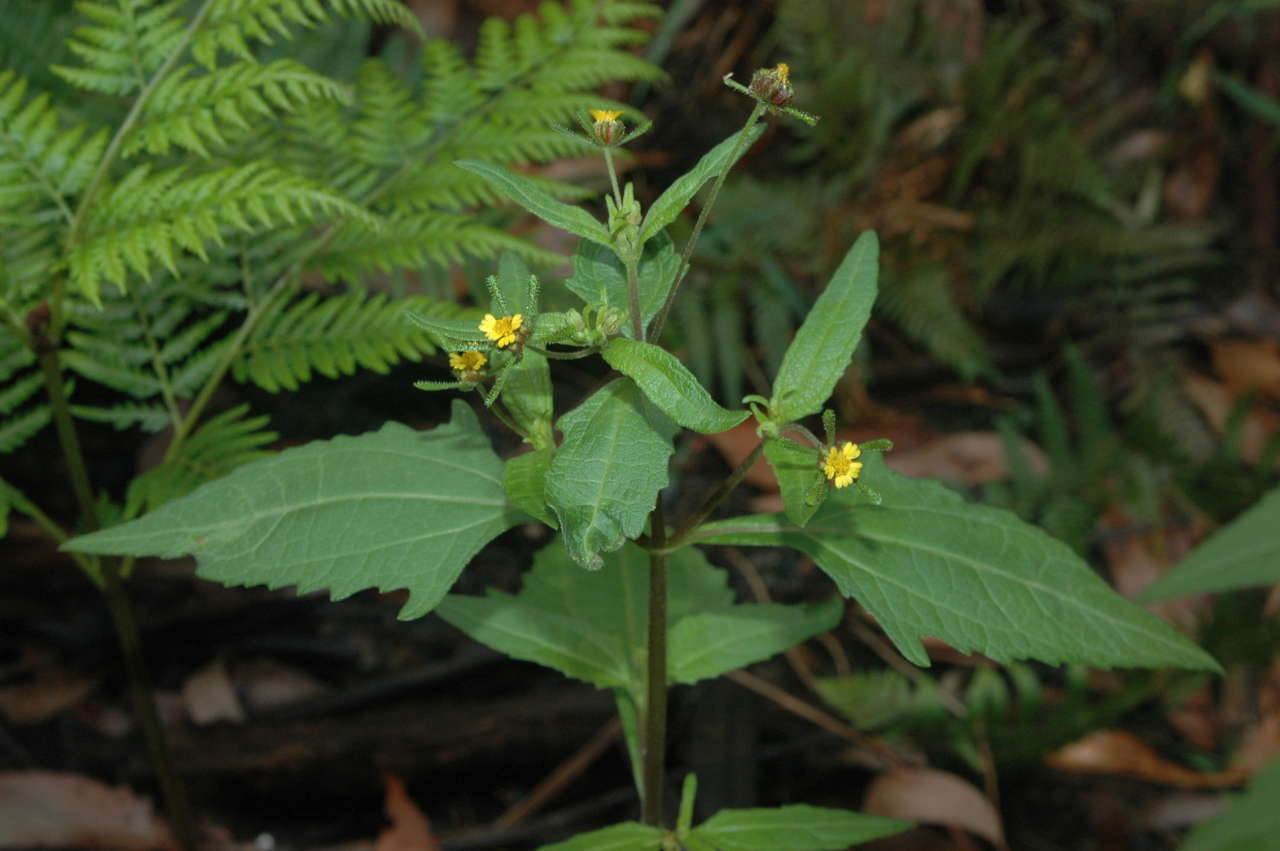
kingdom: Plantae
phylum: Tracheophyta
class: Magnoliopsida
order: Asterales
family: Asteraceae
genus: Sigesbeckia
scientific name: Sigesbeckia orientalis
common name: Eastern st paul's-wort
